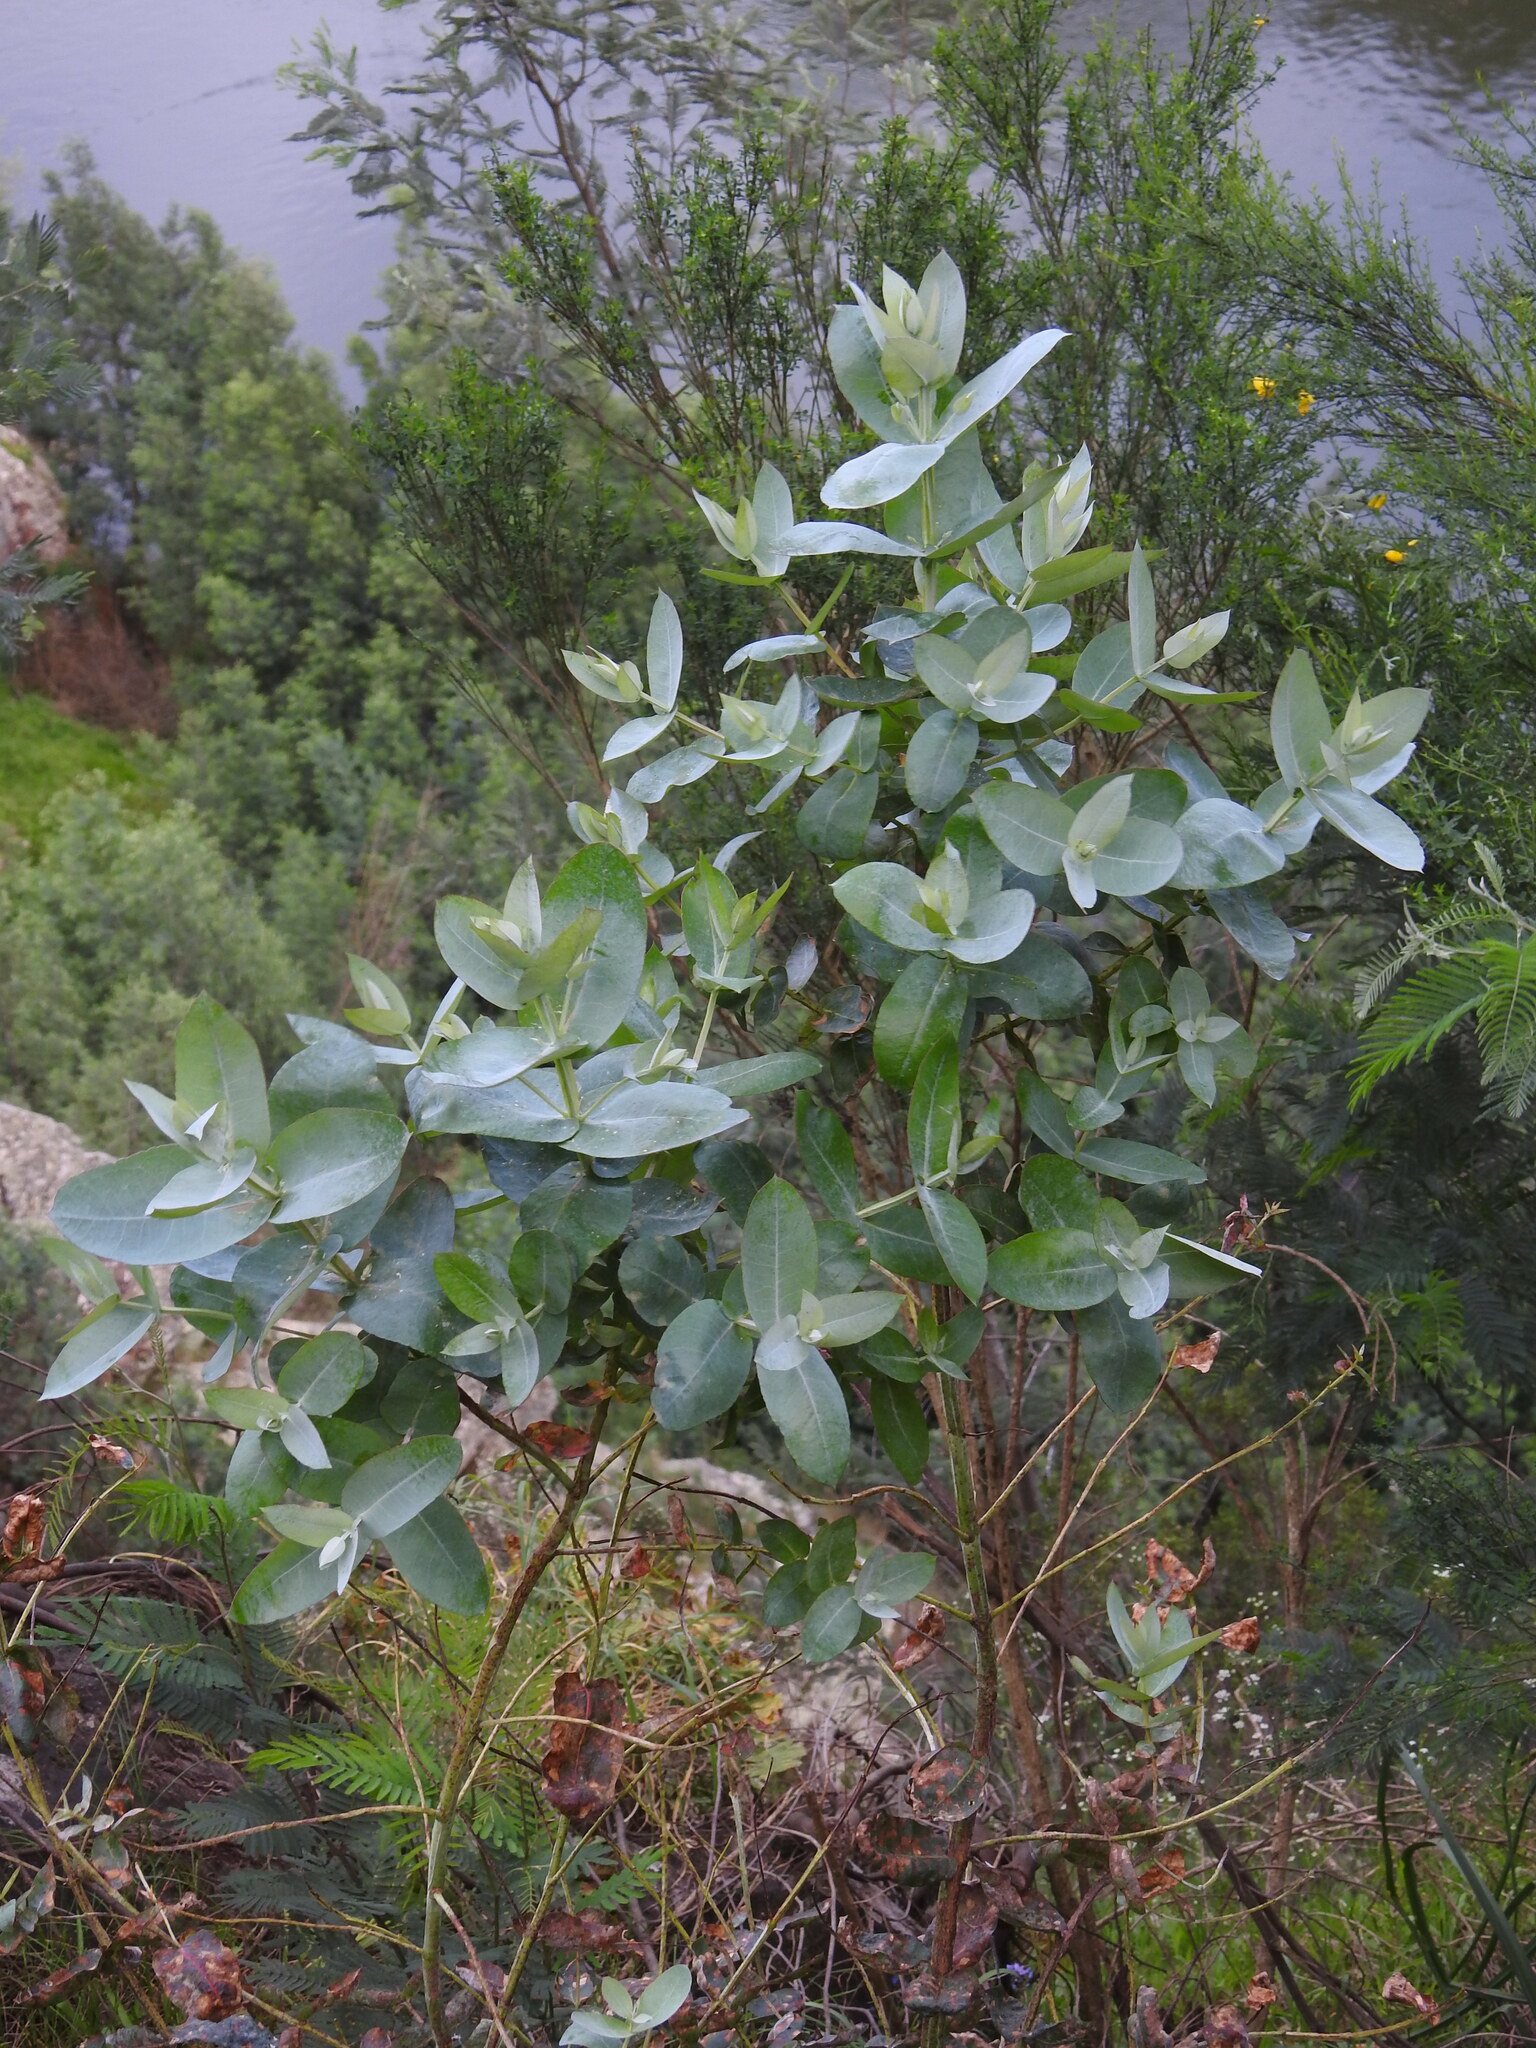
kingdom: Plantae
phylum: Tracheophyta
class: Magnoliopsida
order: Myrtales
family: Myrtaceae
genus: Eucalyptus
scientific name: Eucalyptus globulus
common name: Southern blue-gum
